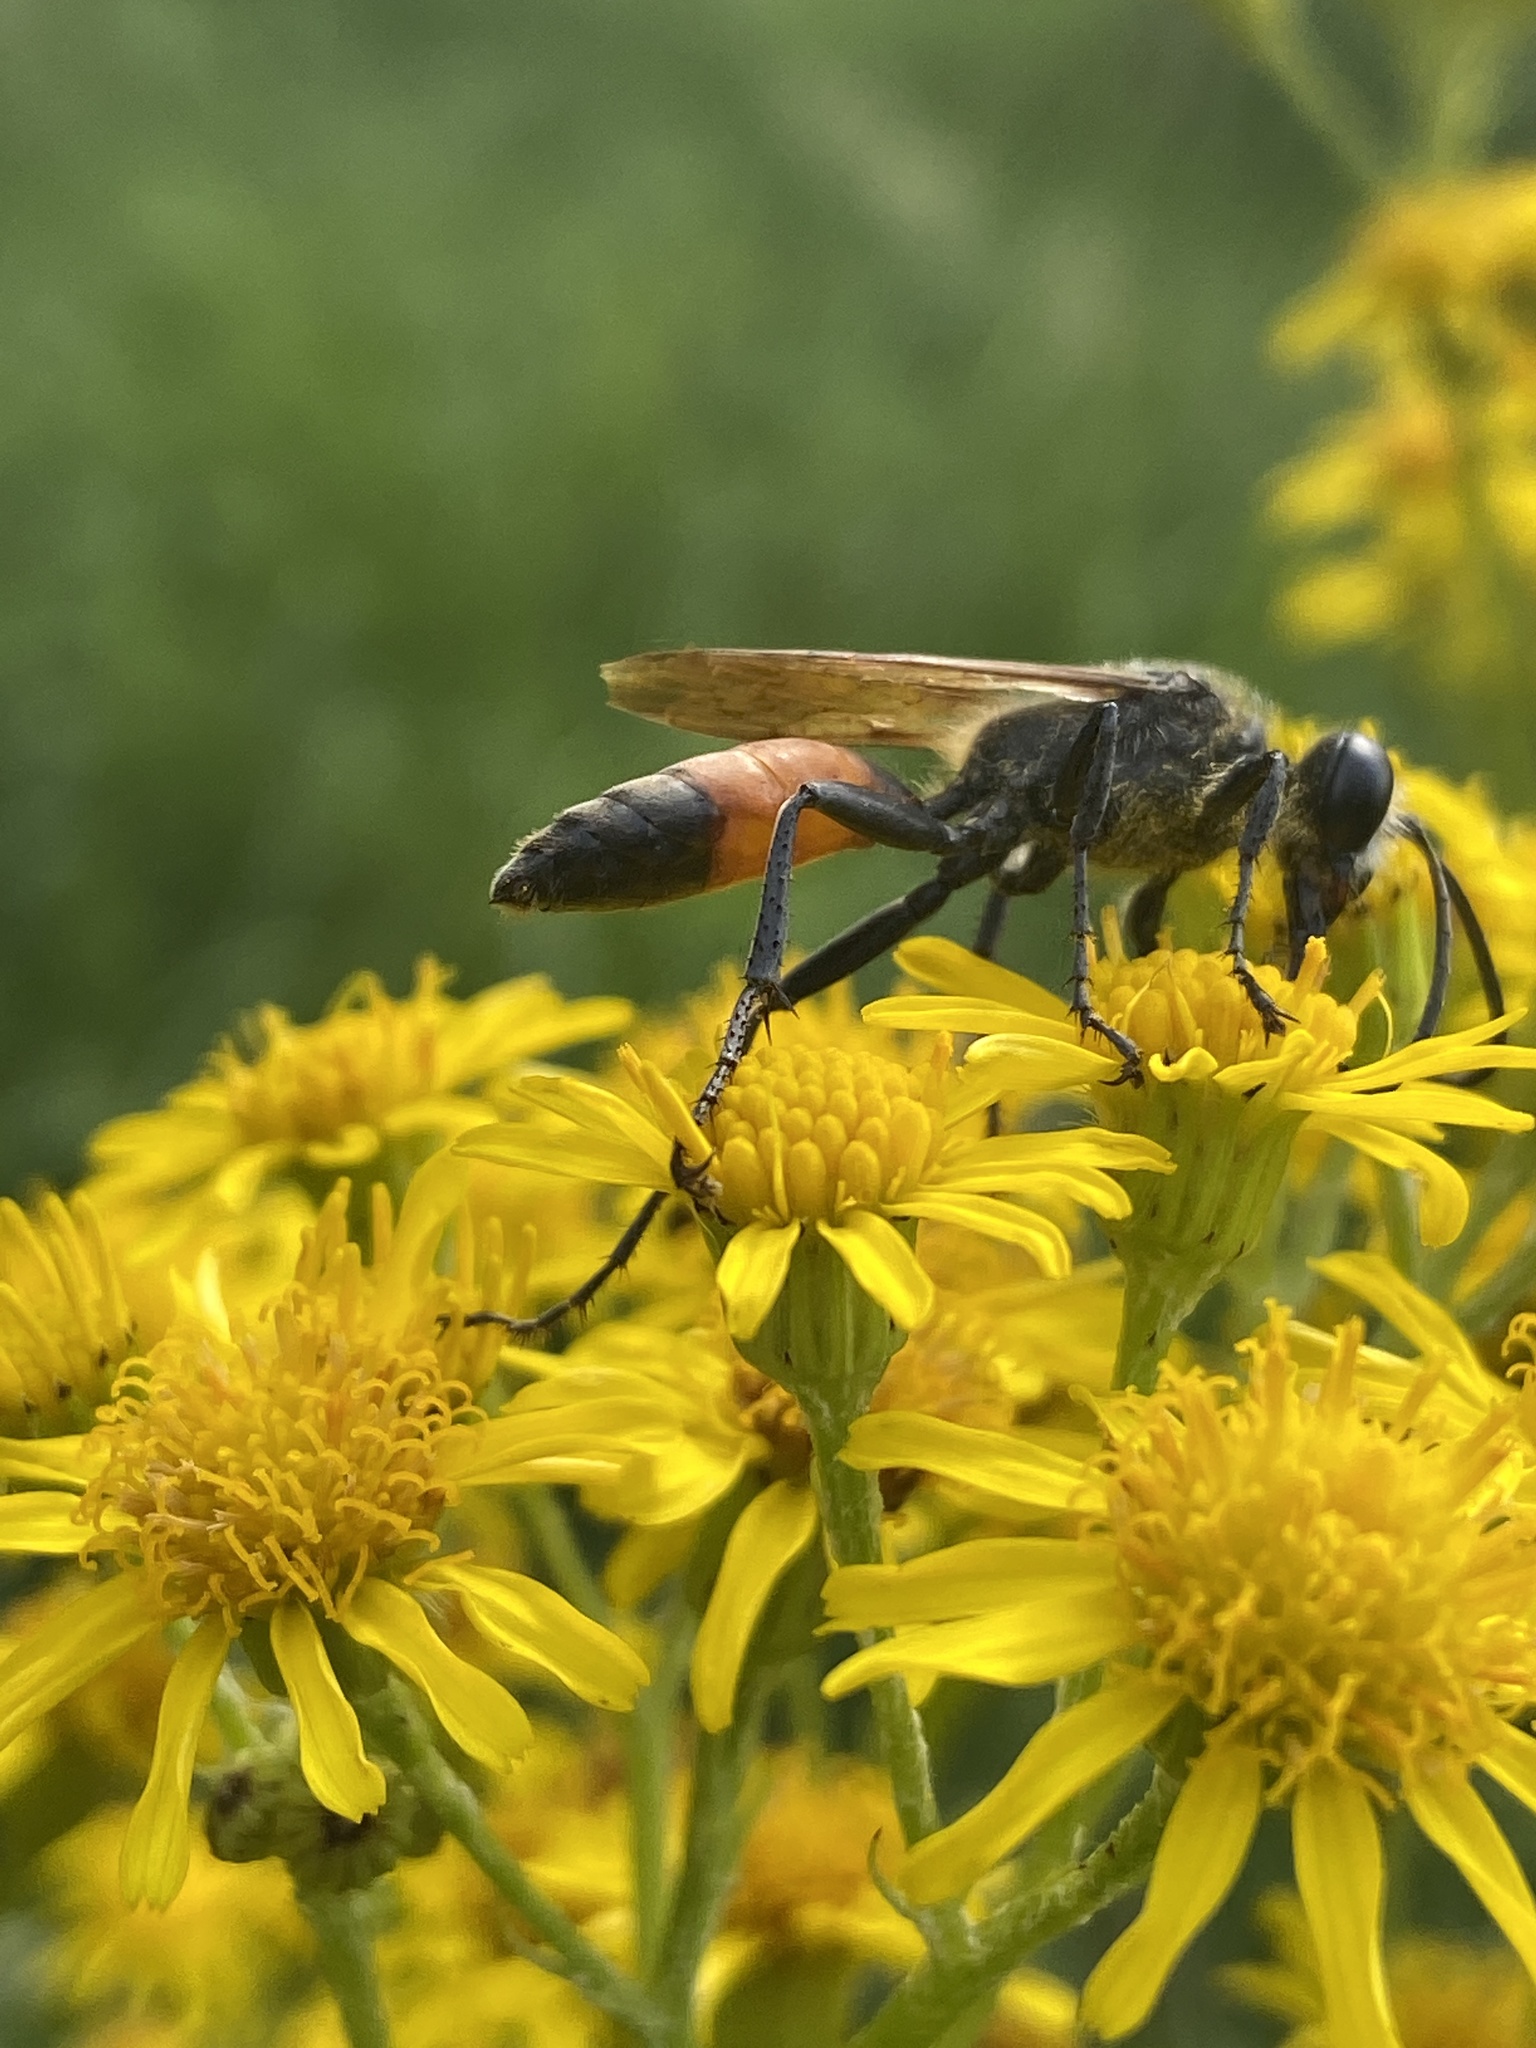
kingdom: Animalia
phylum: Arthropoda
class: Insecta
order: Hymenoptera
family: Sphecidae
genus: Sphex
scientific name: Sphex funerarius
